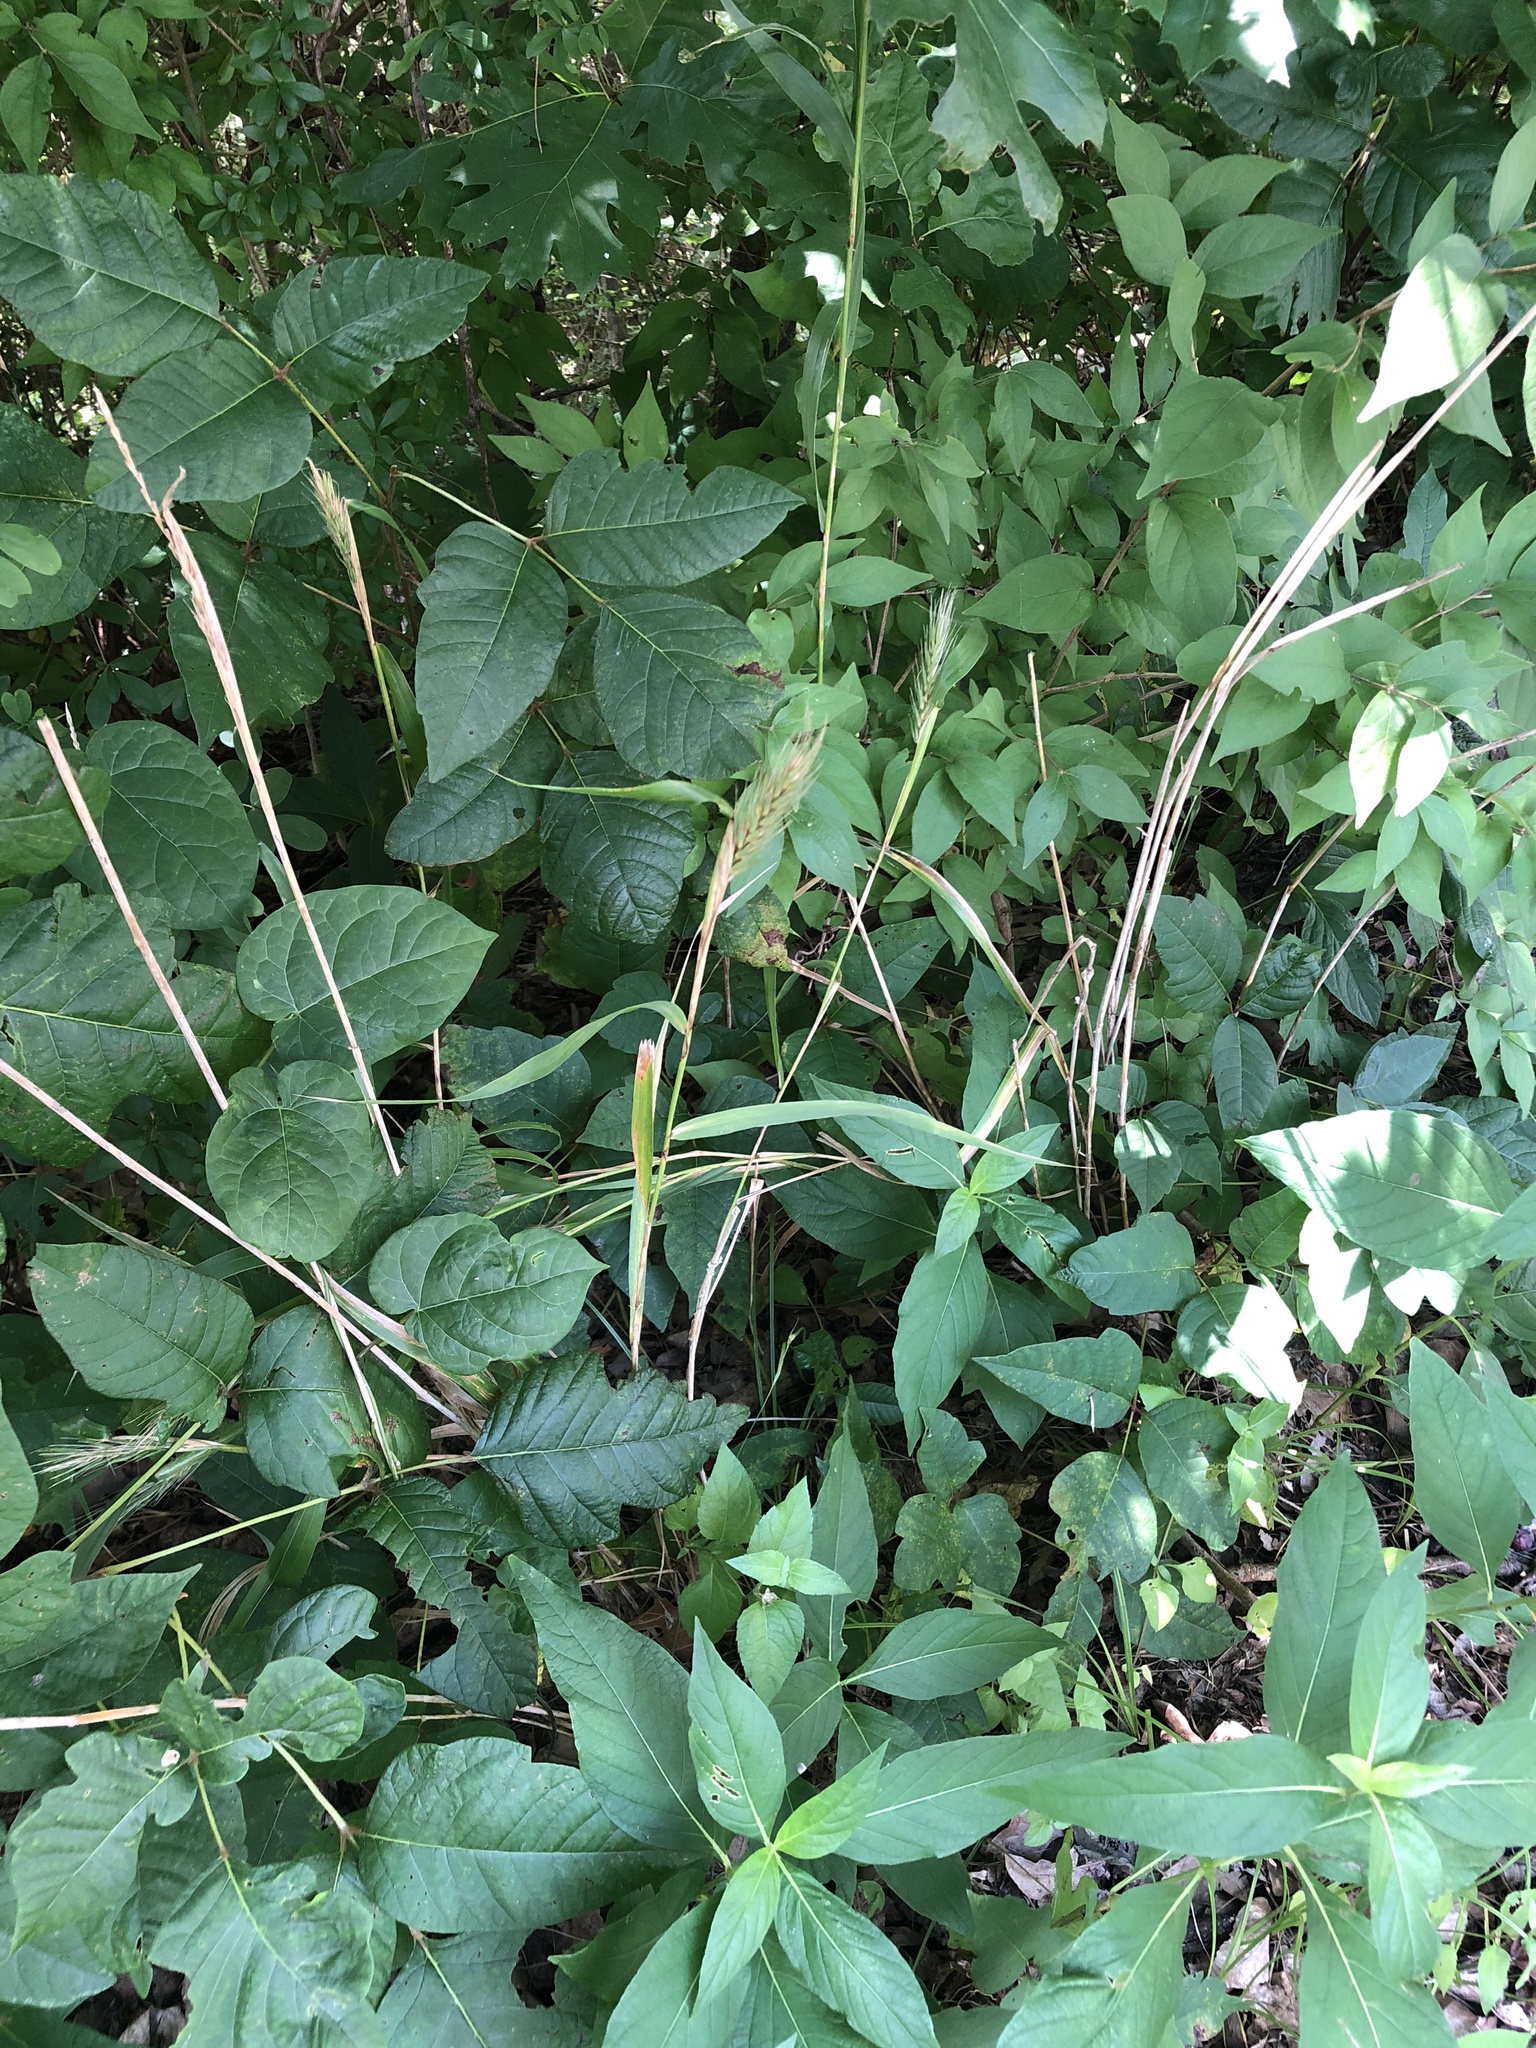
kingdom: Plantae
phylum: Tracheophyta
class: Liliopsida
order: Poales
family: Poaceae
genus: Elymus
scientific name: Elymus virginicus
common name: Common eastern wildrye
